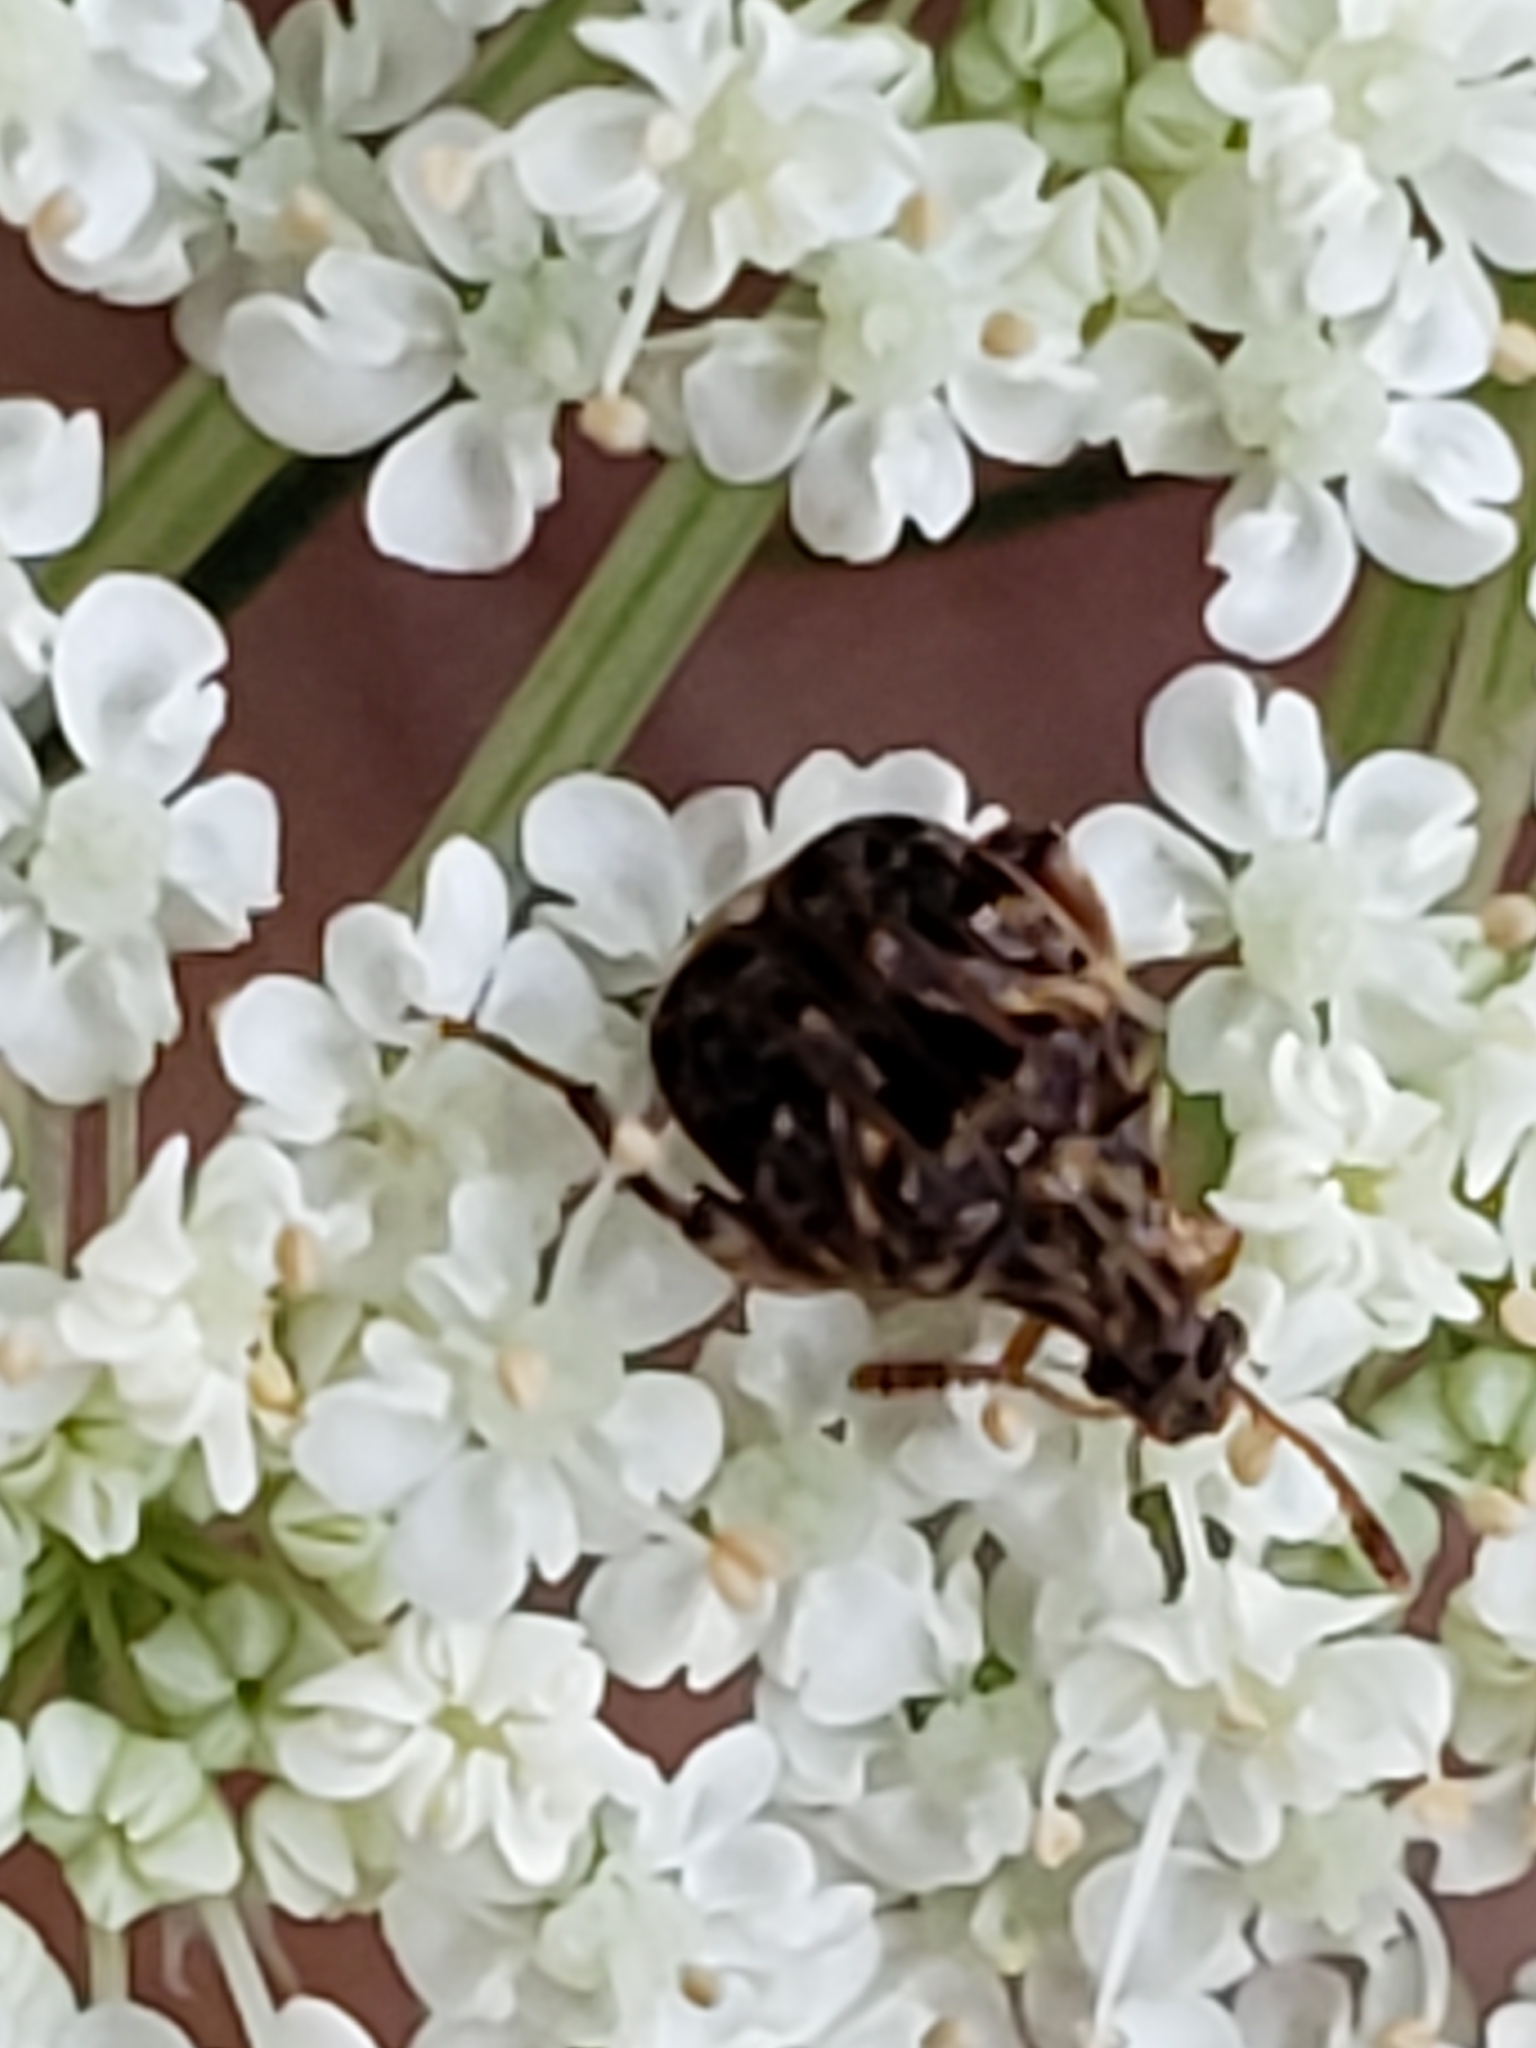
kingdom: Animalia
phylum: Arthropoda
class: Insecta
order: Coleoptera
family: Chrysomelidae
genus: Gibbobruchus
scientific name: Gibbobruchus mimus
